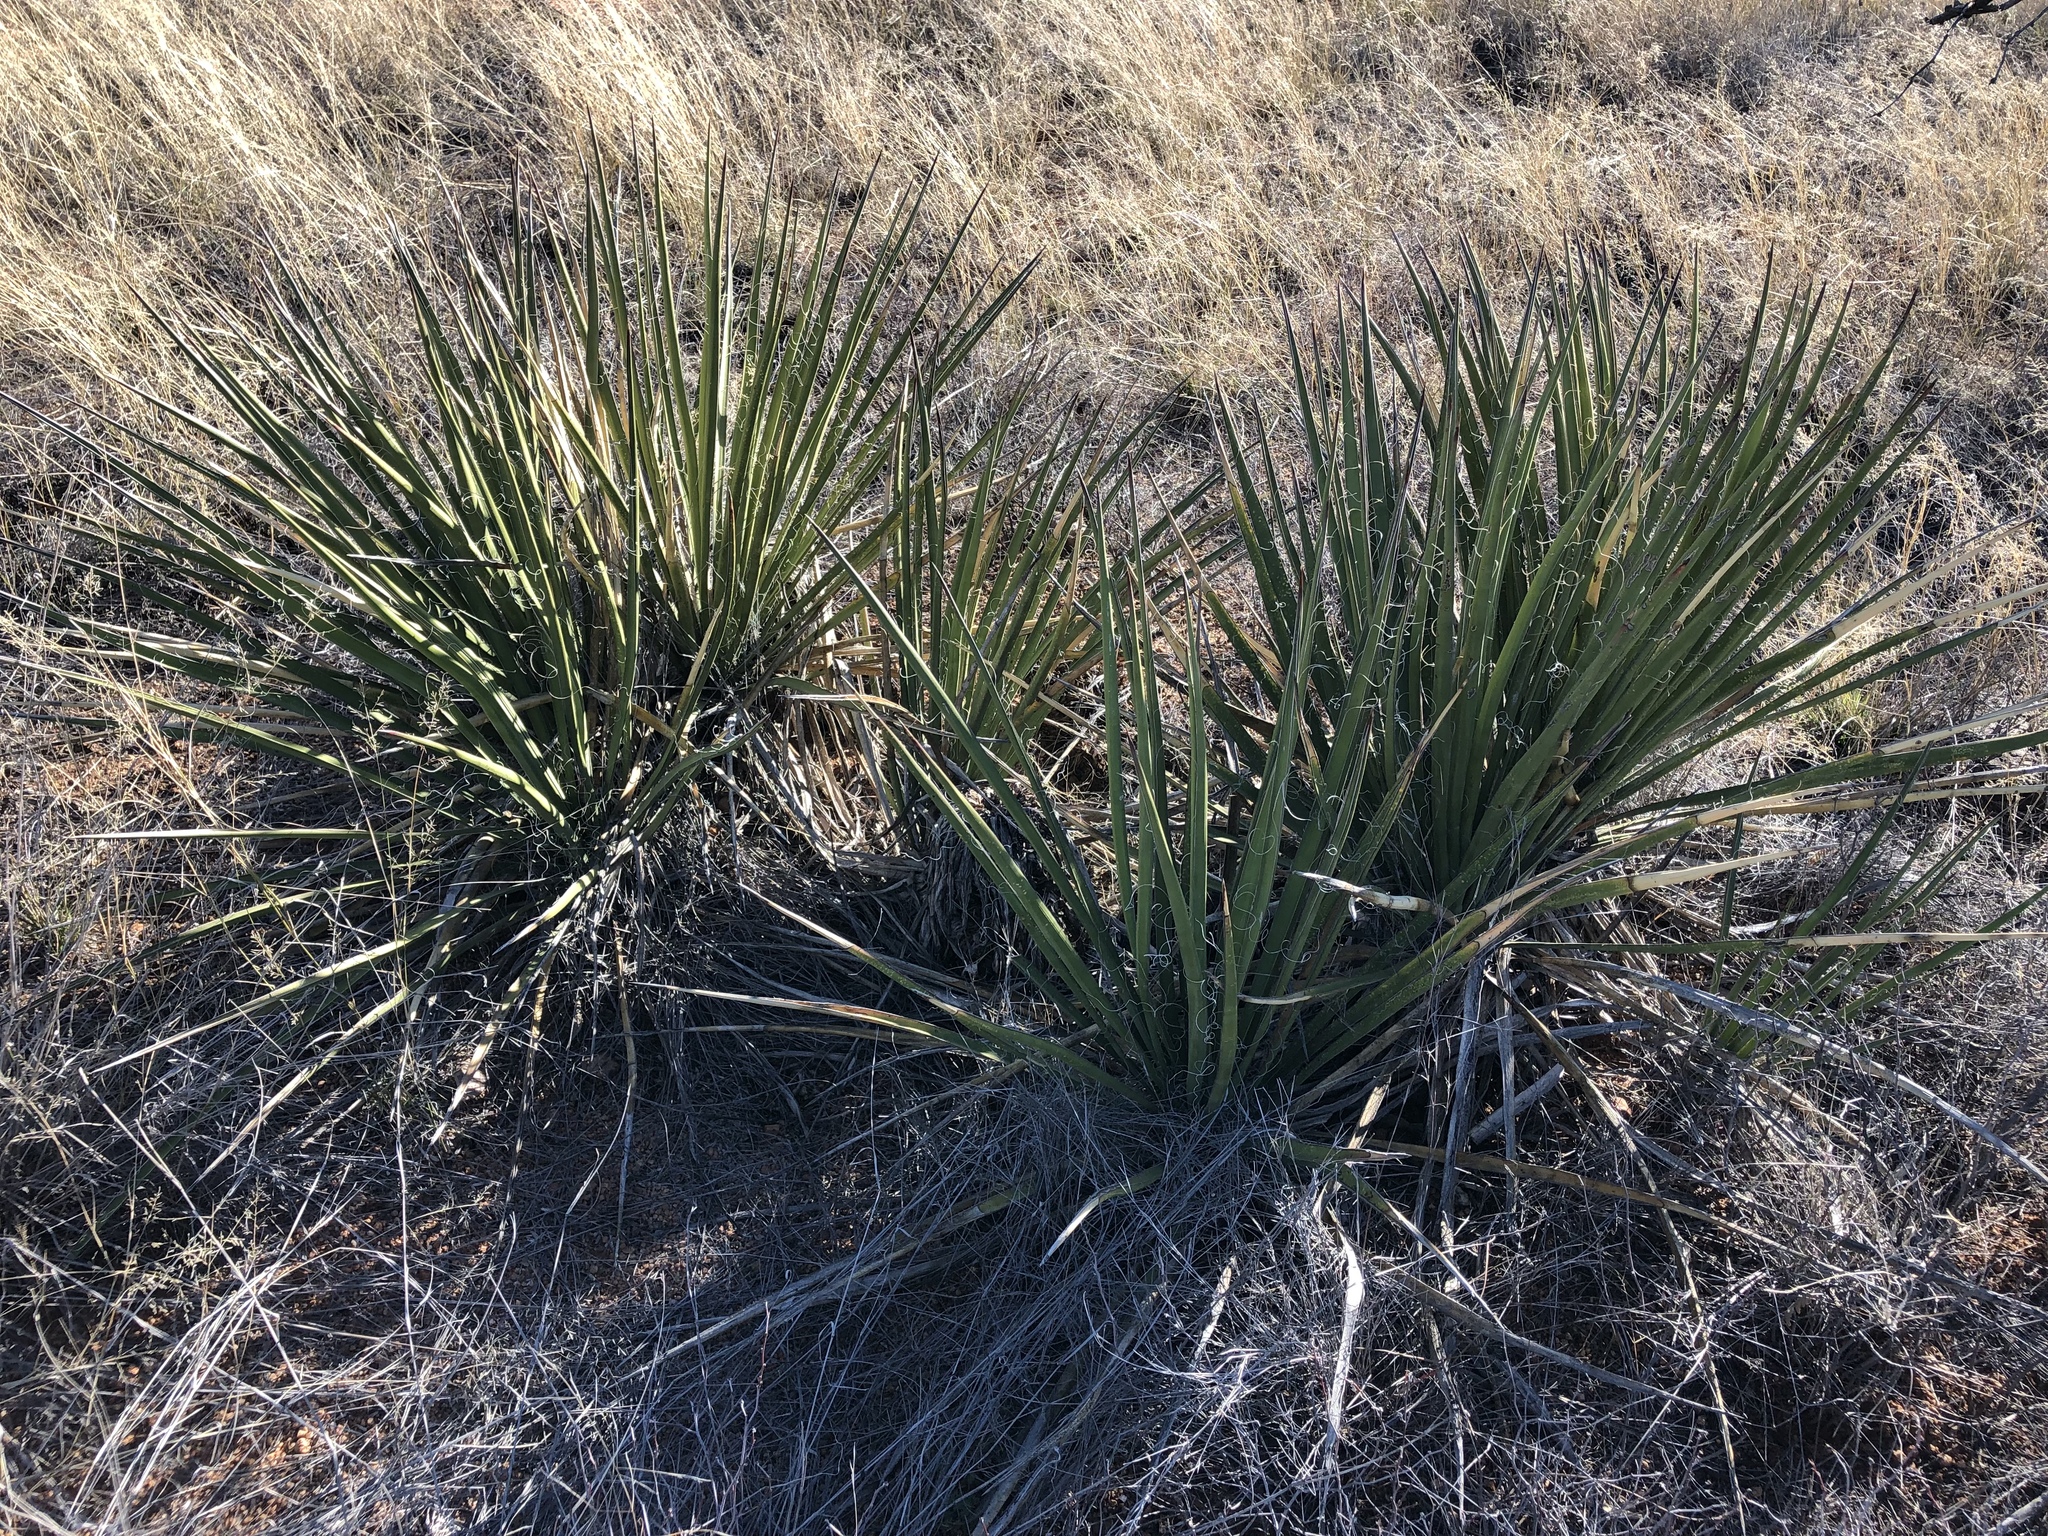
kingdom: Plantae
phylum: Tracheophyta
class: Liliopsida
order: Asparagales
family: Asparagaceae
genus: Yucca
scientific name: Yucca baccata
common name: Banana yucca
